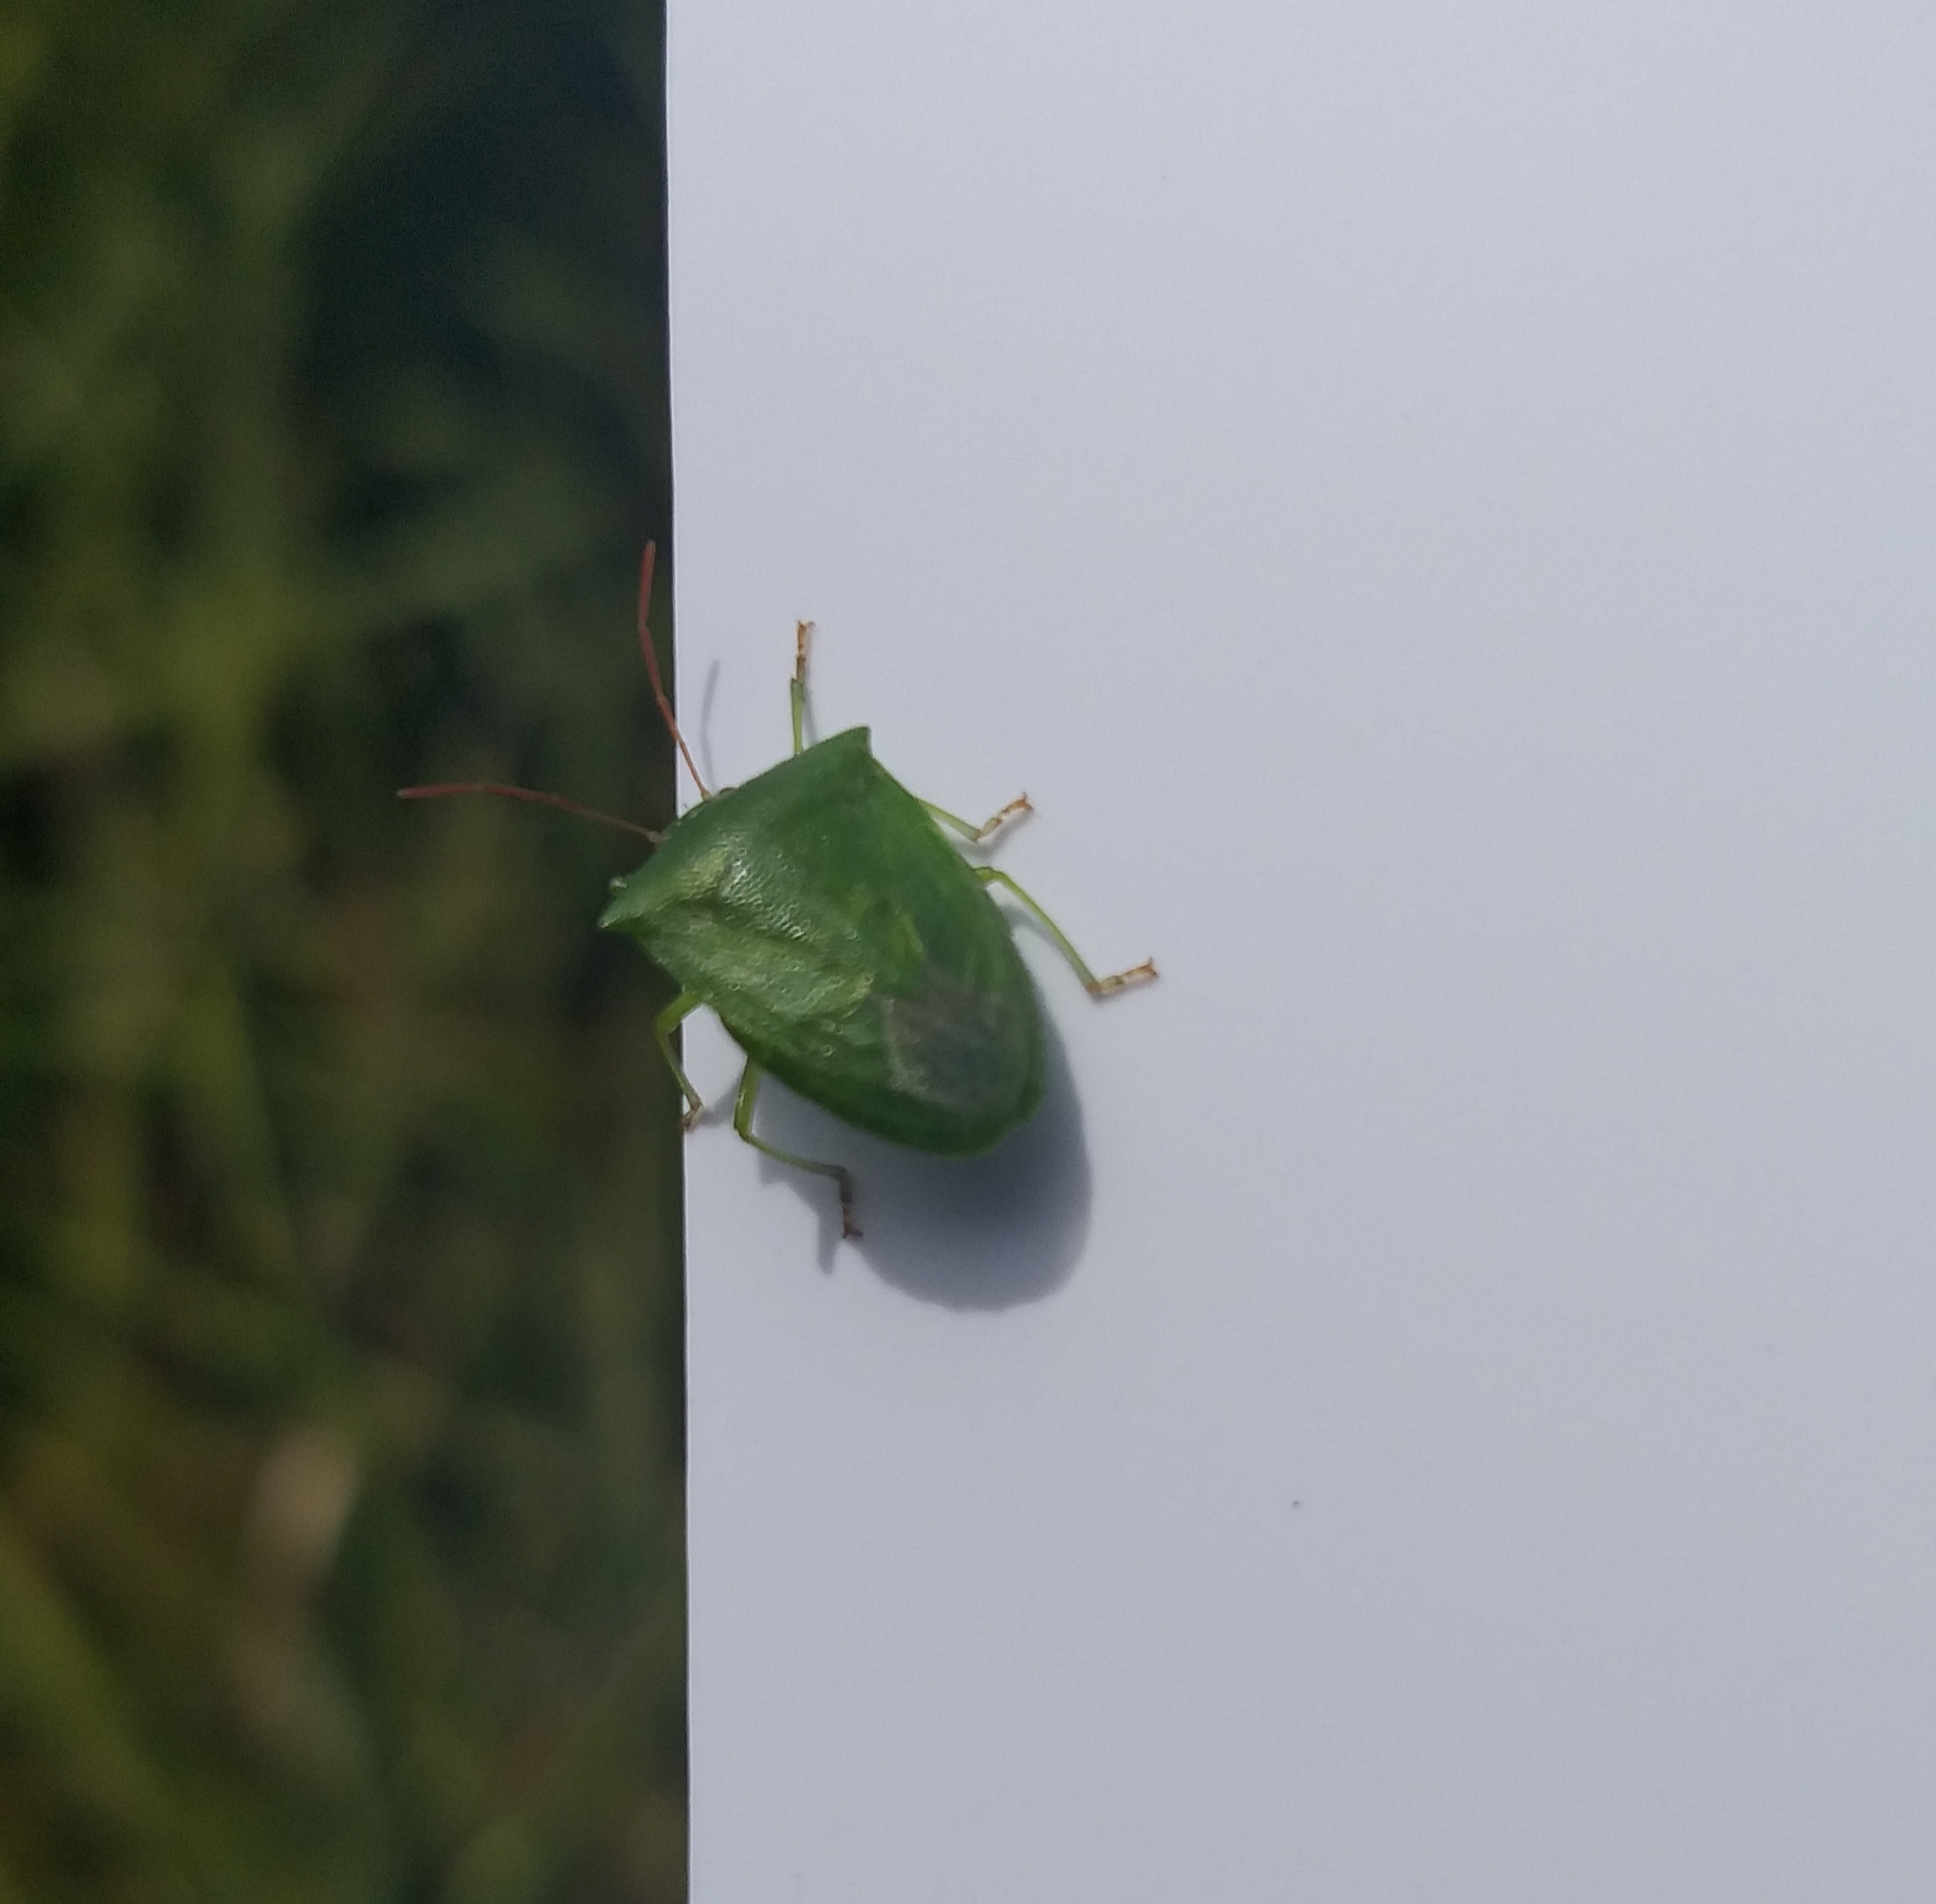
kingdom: Animalia
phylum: Arthropoda
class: Insecta
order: Hemiptera
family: Pentatomidae
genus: Cuspicona
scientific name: Cuspicona simplex
